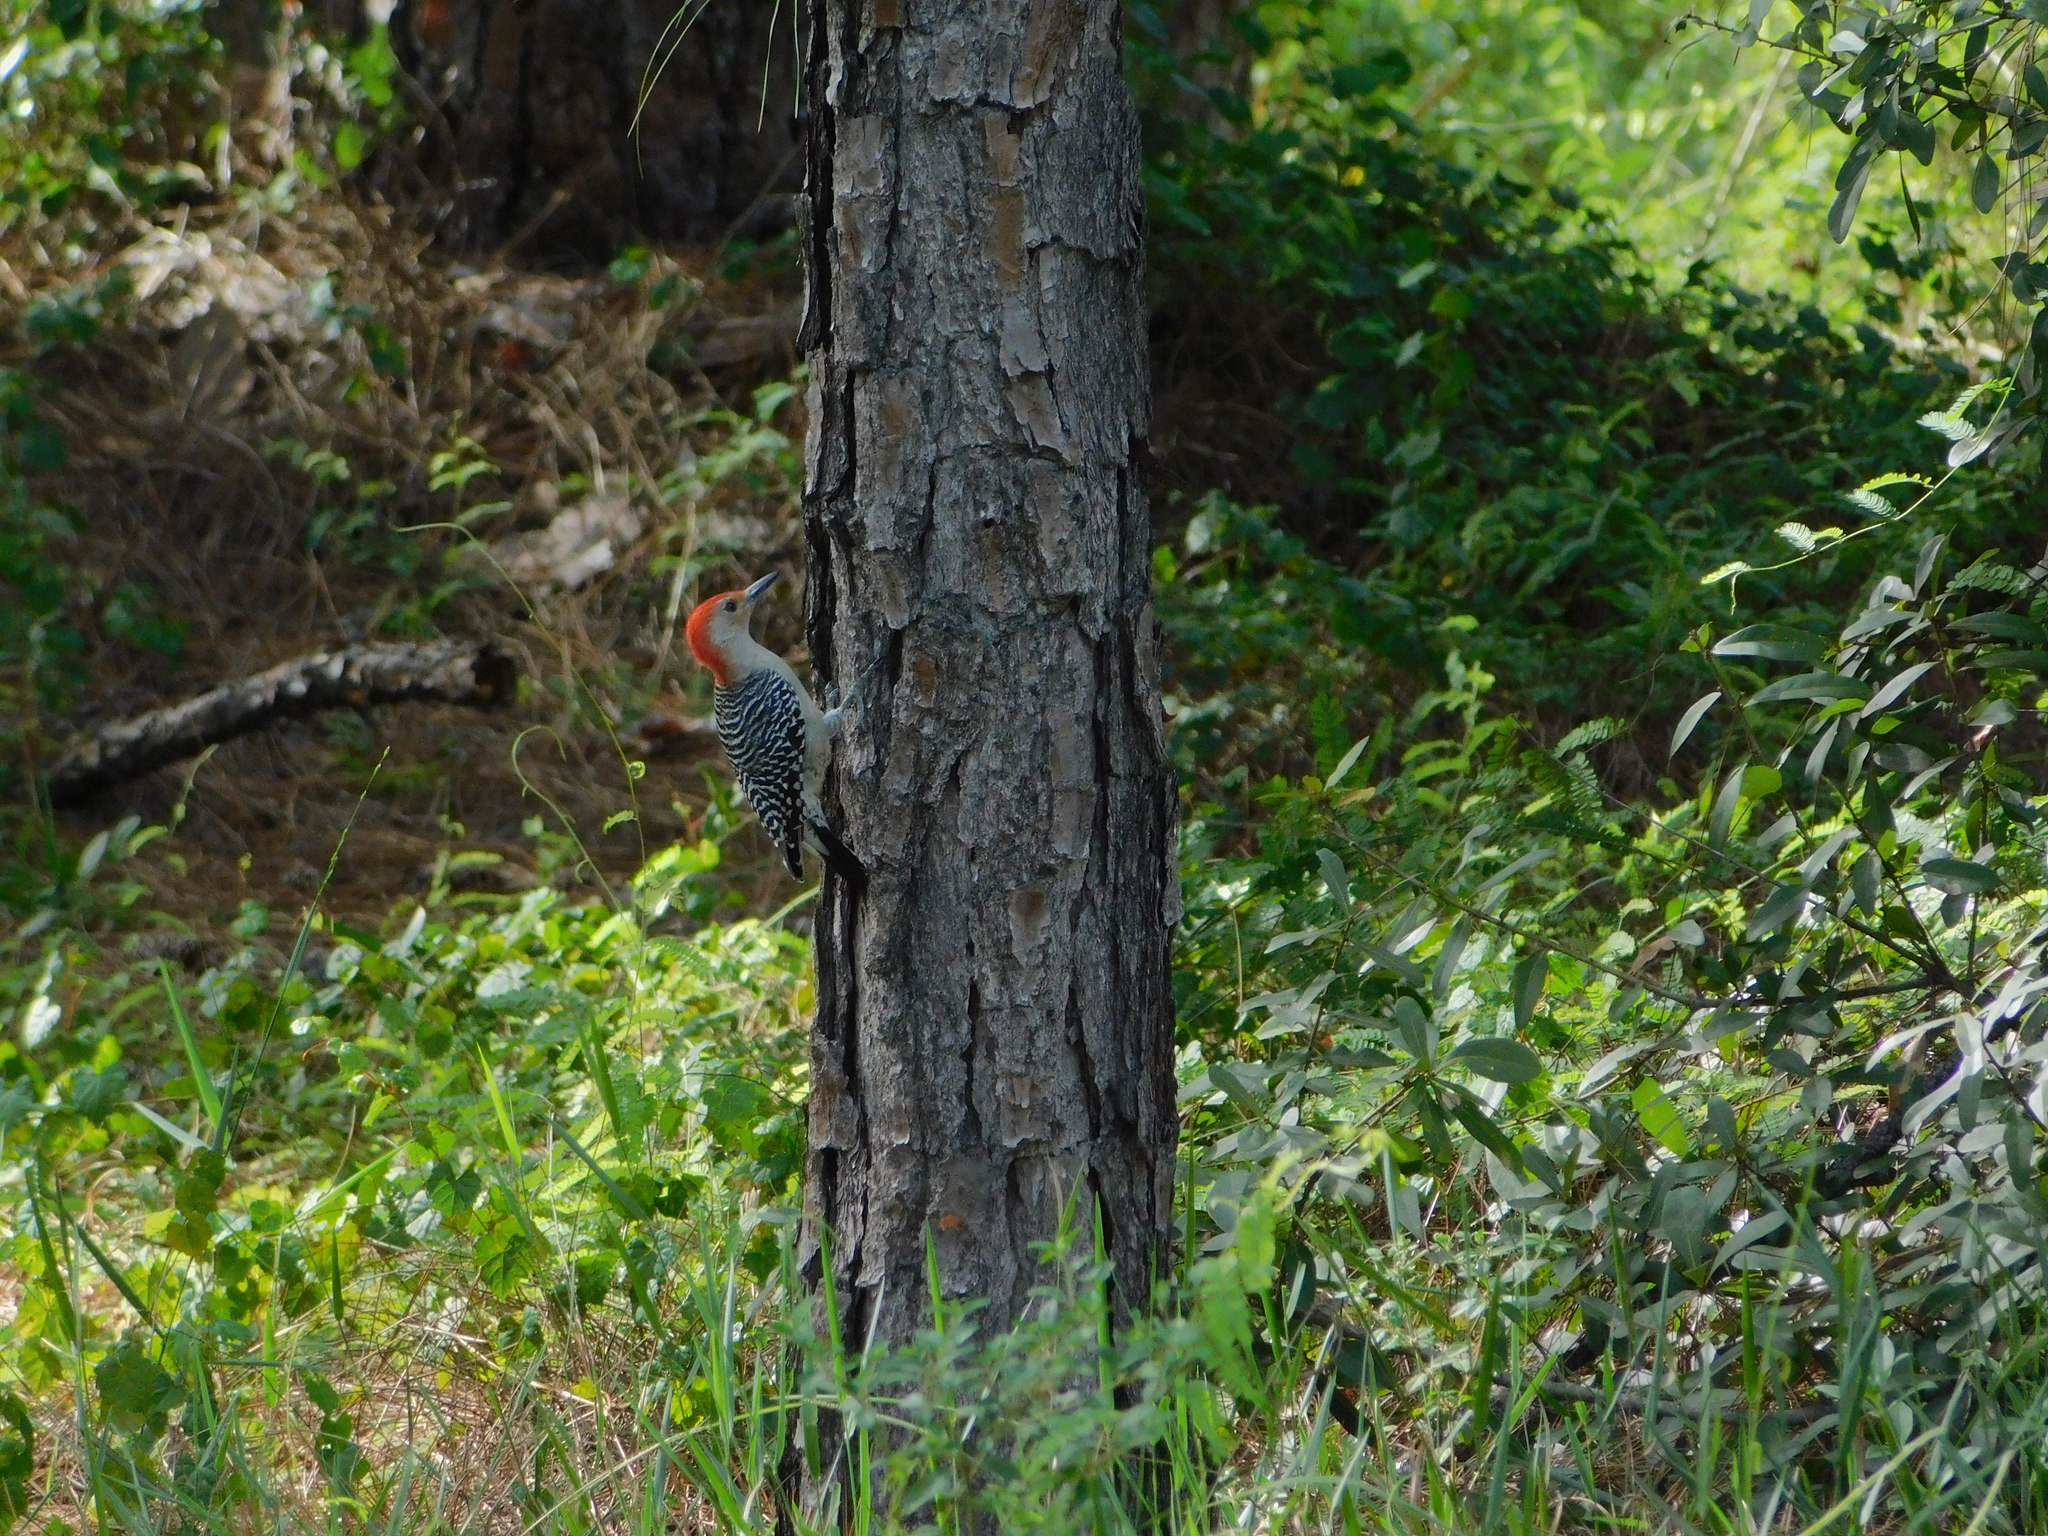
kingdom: Animalia
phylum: Chordata
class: Aves
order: Piciformes
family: Picidae
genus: Melanerpes
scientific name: Melanerpes carolinus
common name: Red-bellied woodpecker
